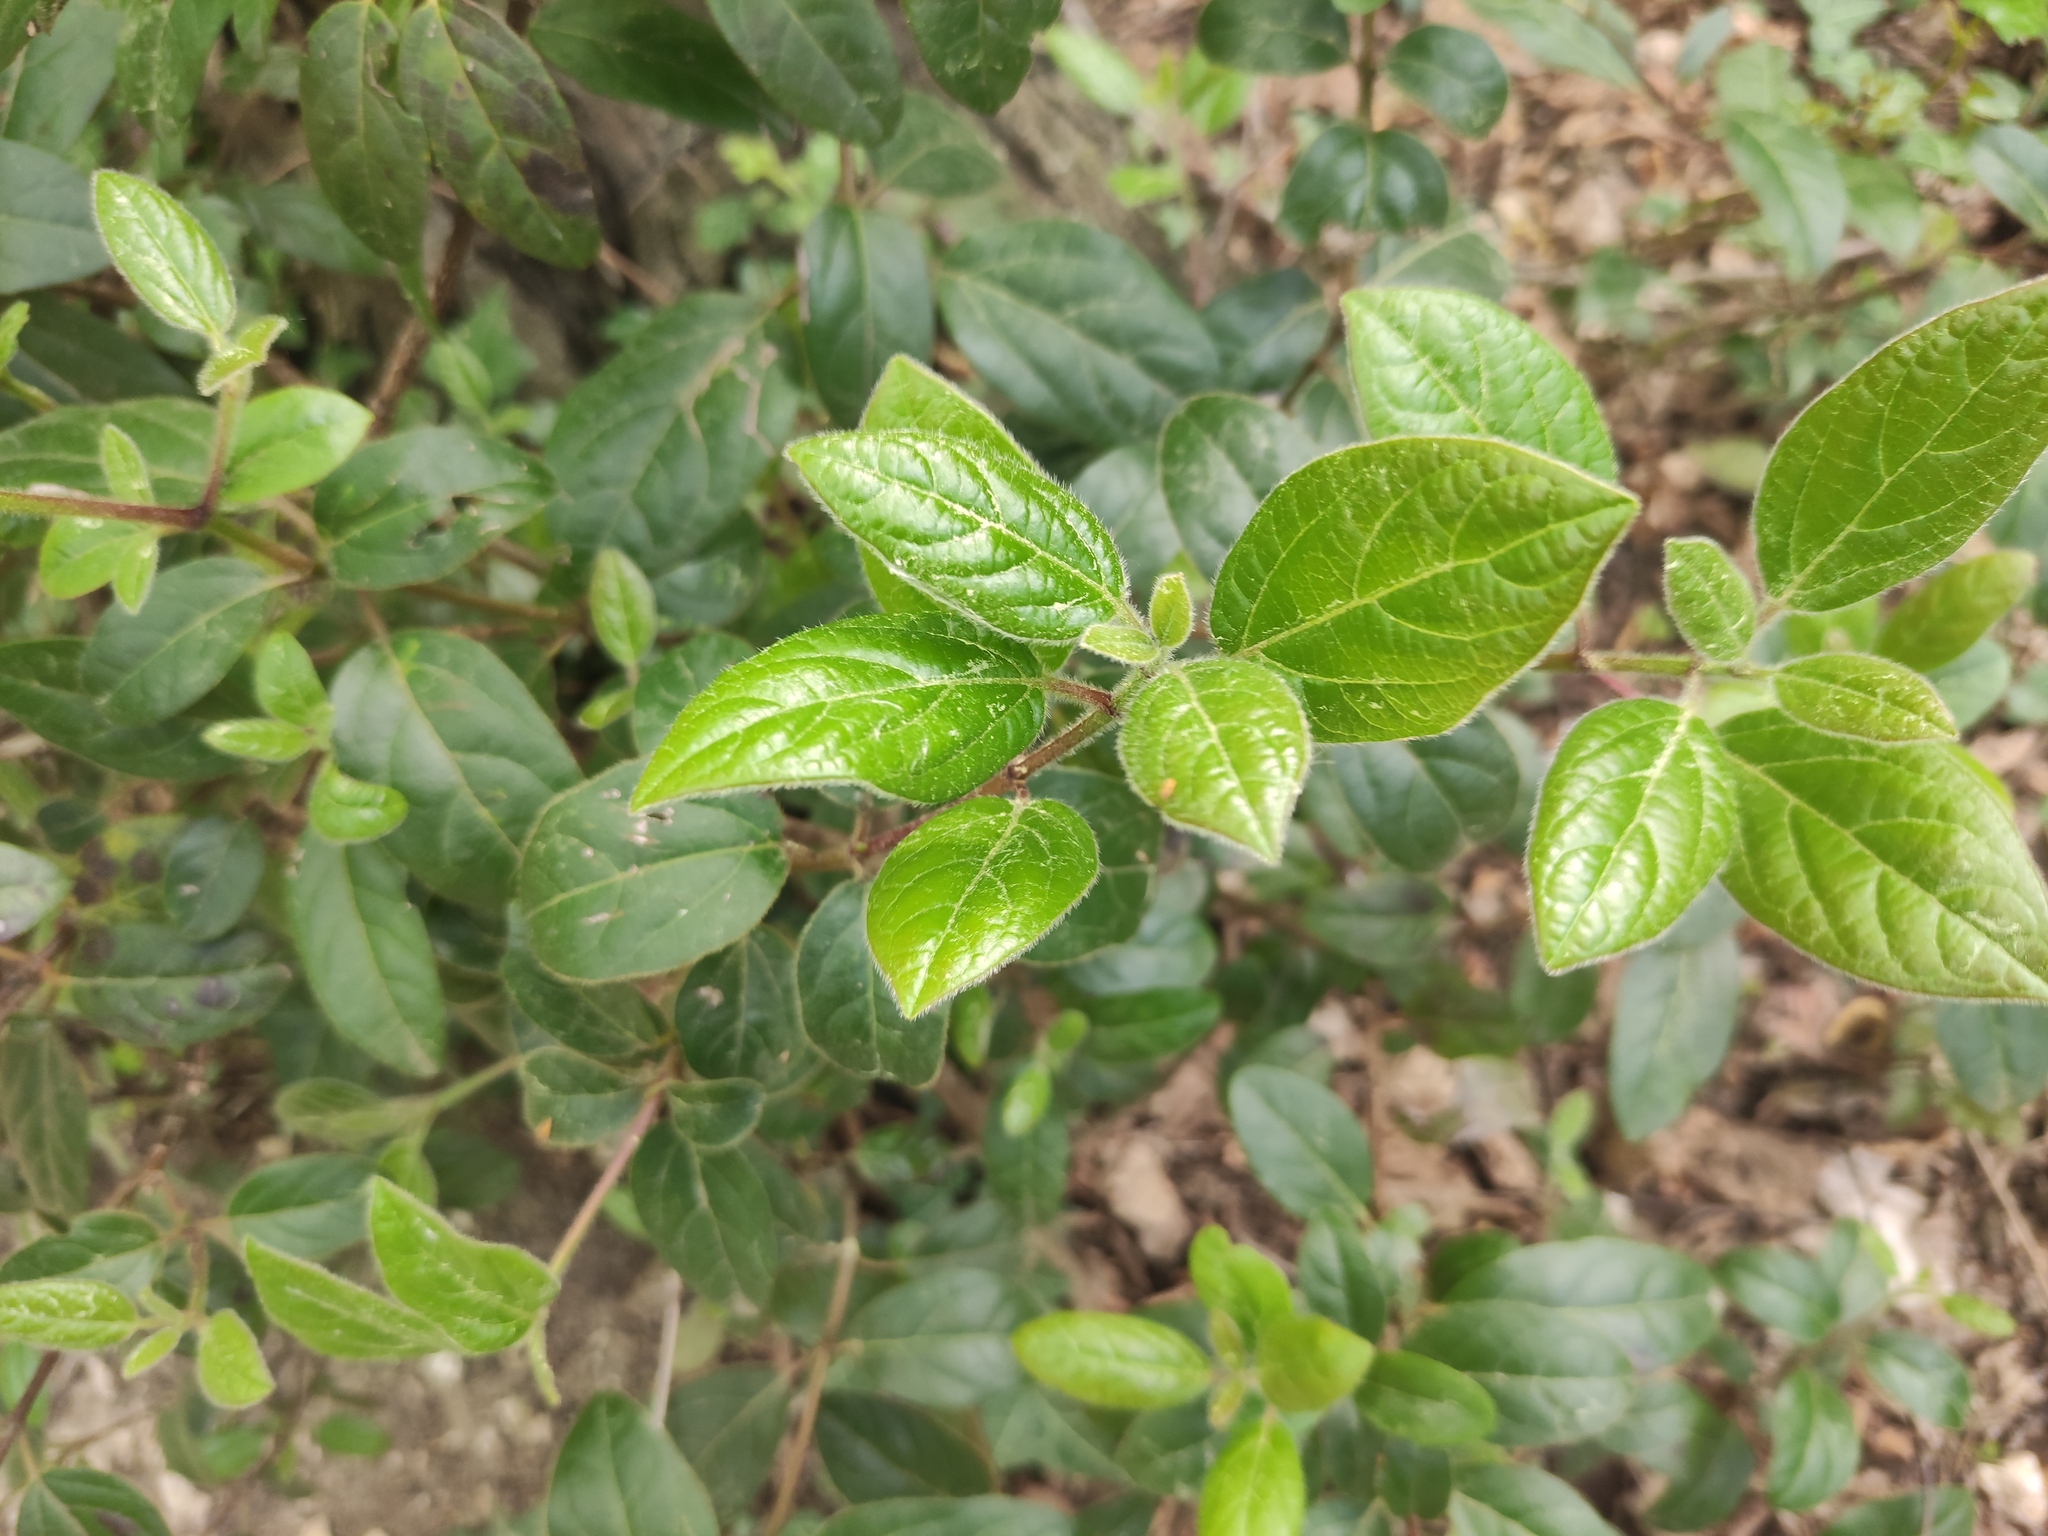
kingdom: Plantae
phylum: Tracheophyta
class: Magnoliopsida
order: Dipsacales
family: Viburnaceae
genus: Viburnum
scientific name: Viburnum tinus
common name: Laurustinus
